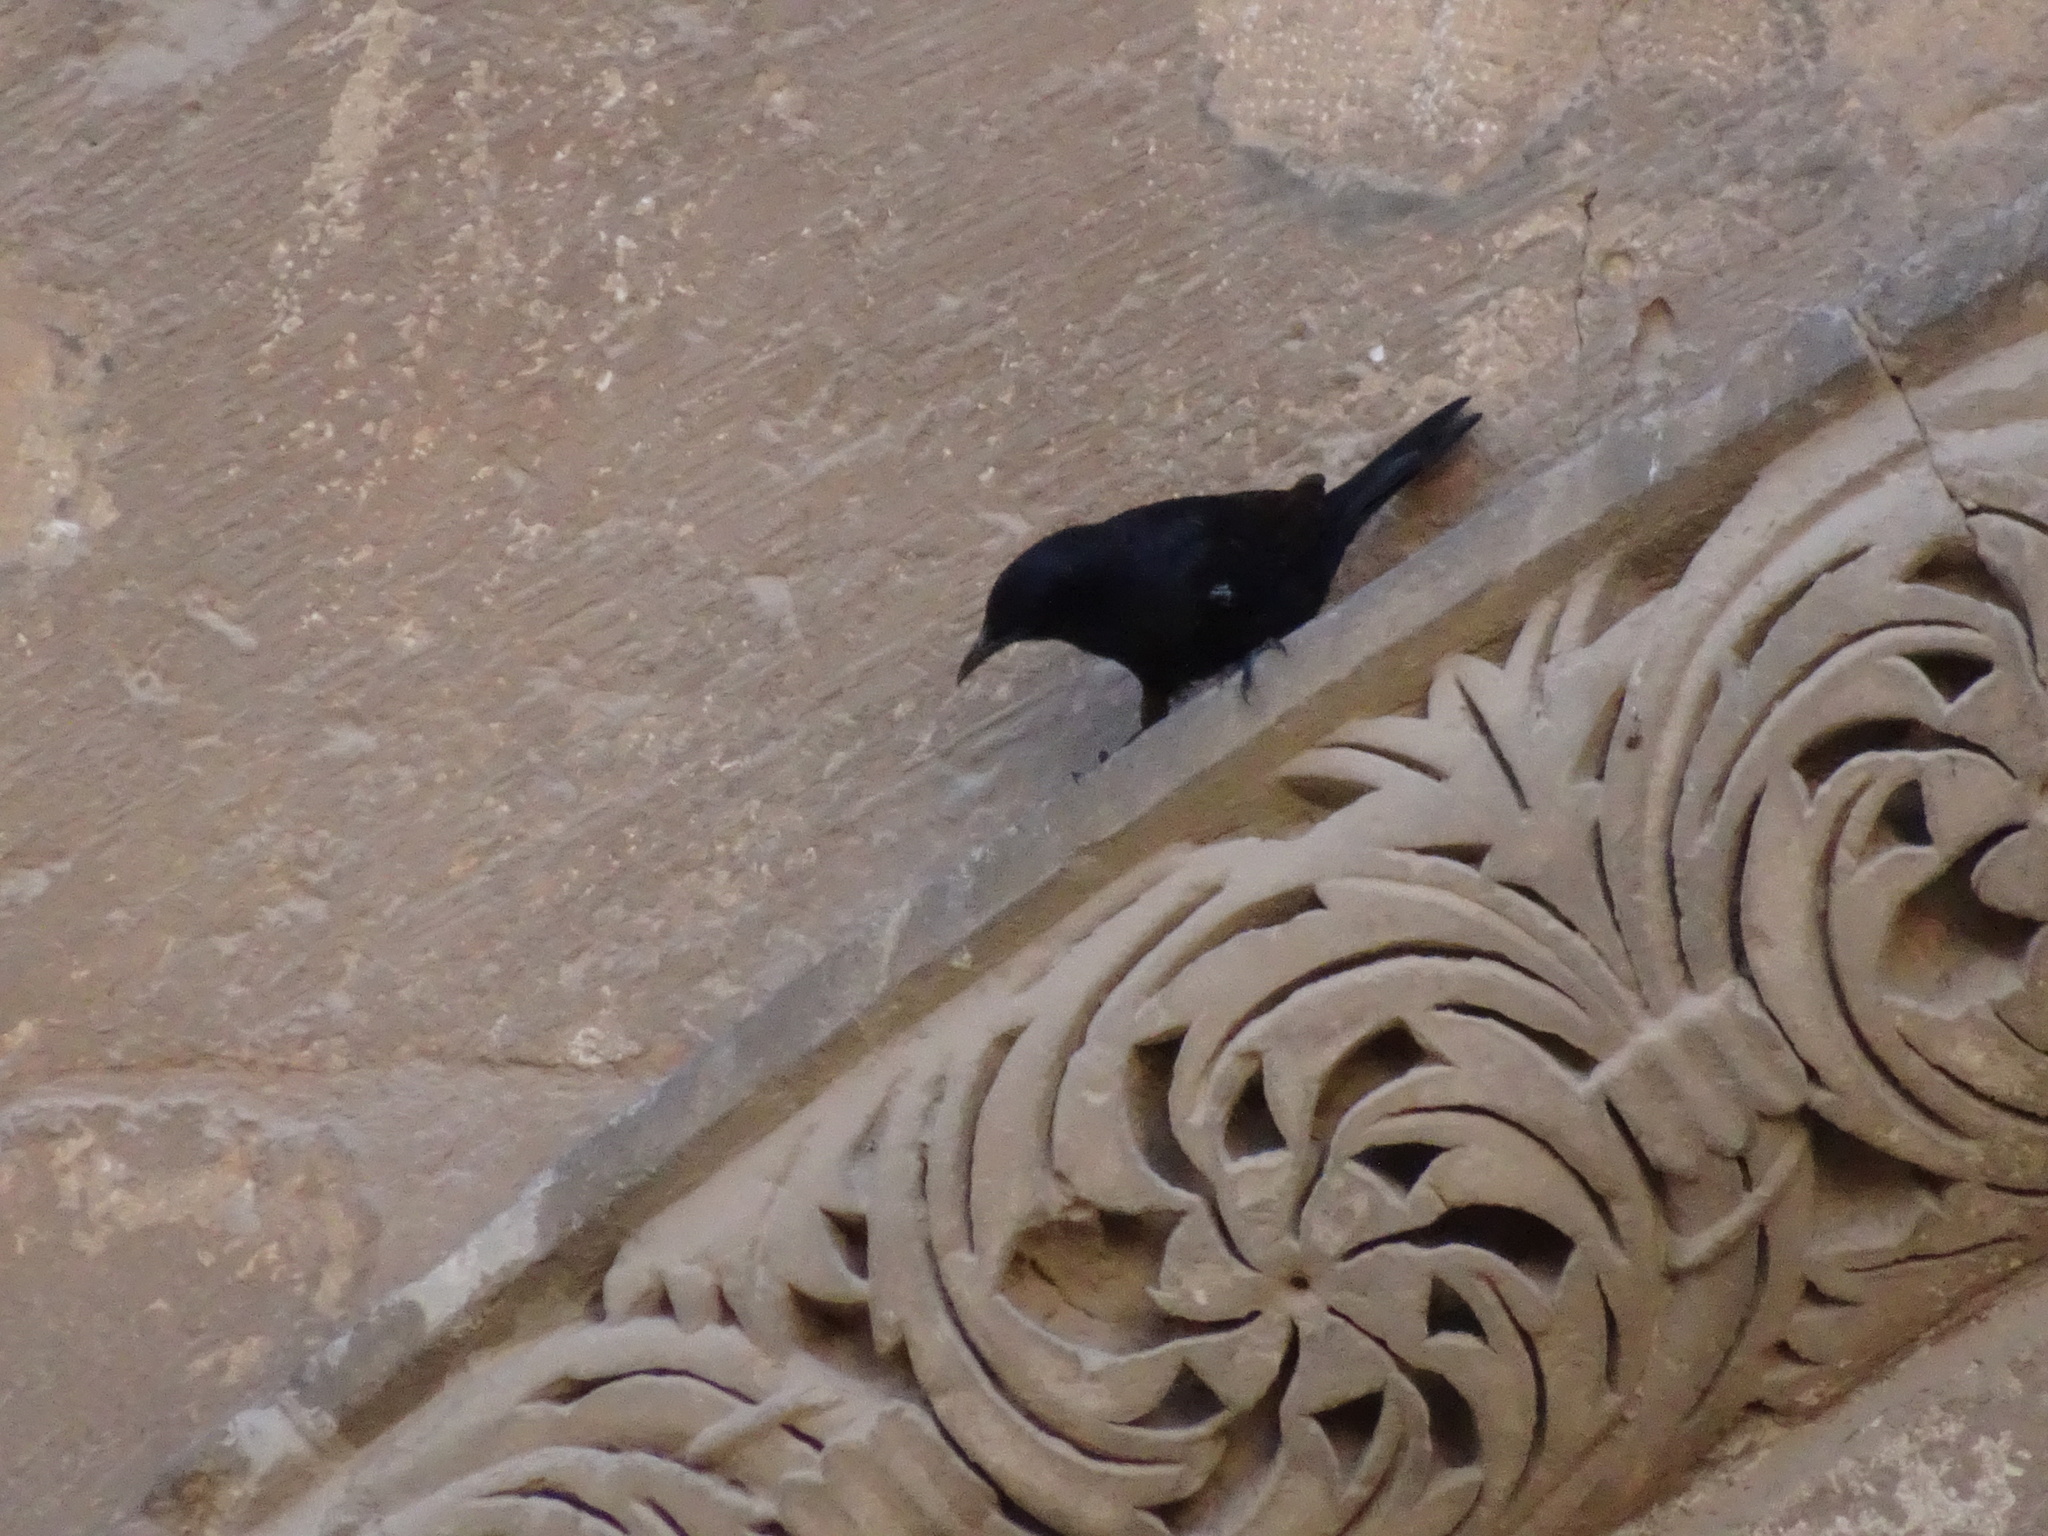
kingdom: Animalia
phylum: Chordata
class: Aves
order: Passeriformes
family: Sturnidae
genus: Onychognathus
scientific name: Onychognathus tristramii
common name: Tristram's starling
